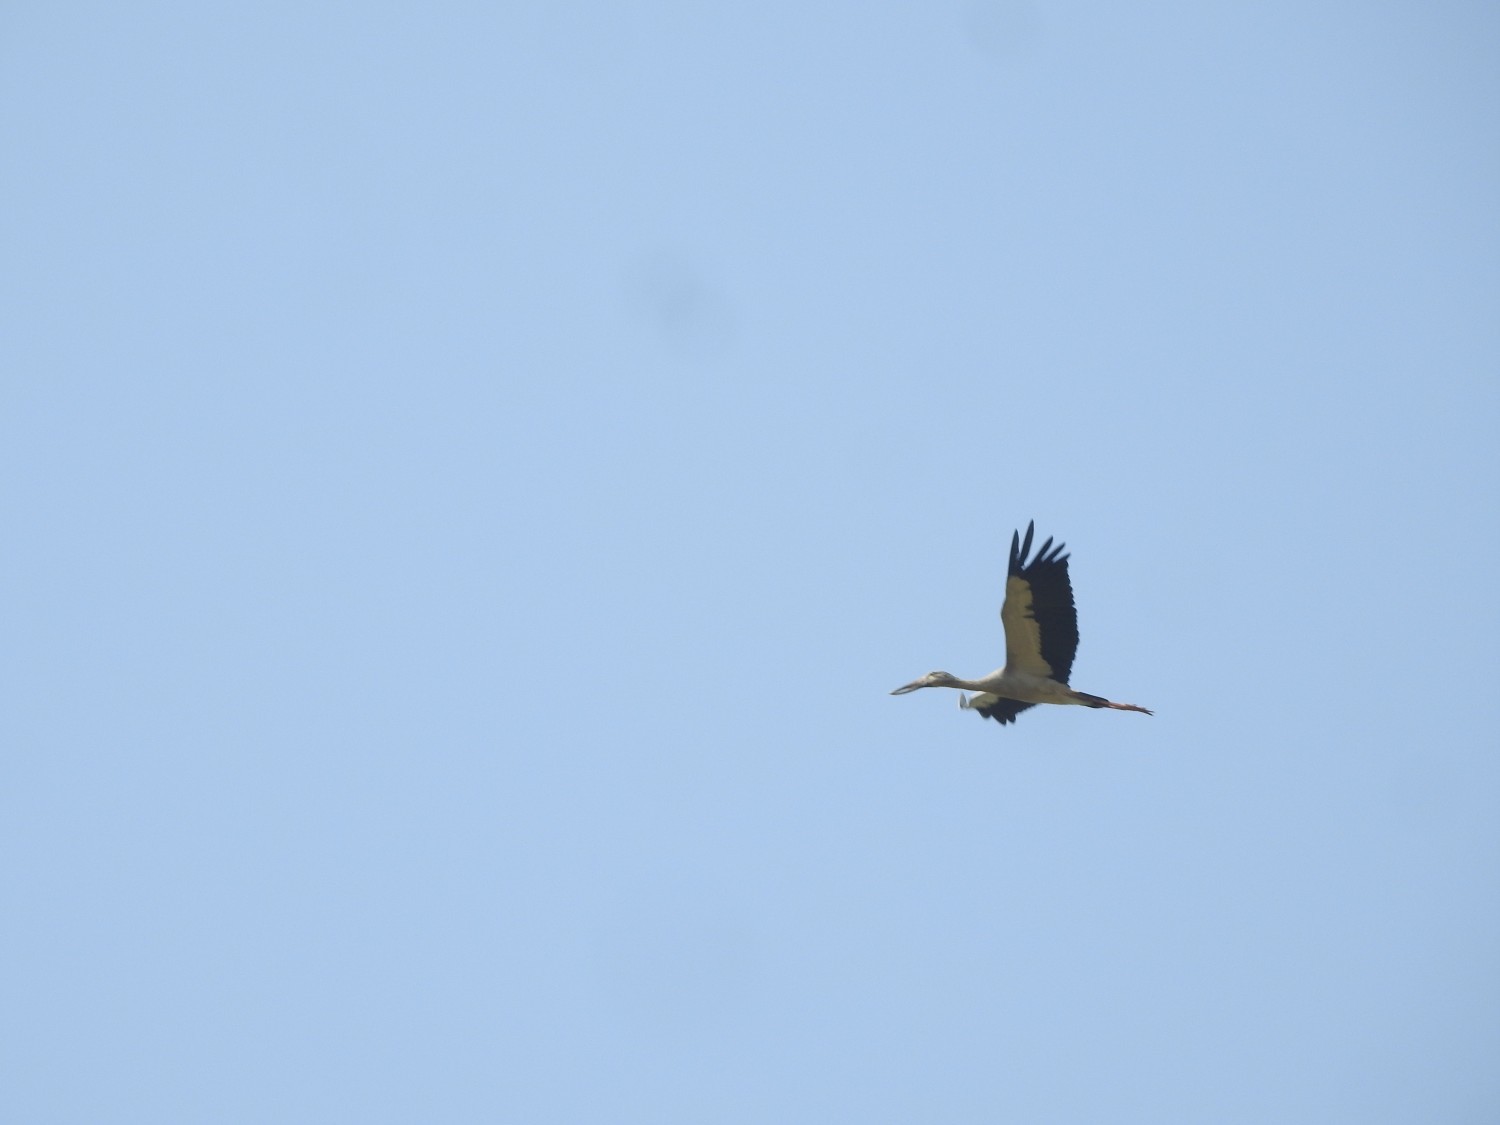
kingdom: Animalia
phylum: Chordata
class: Aves
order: Ciconiiformes
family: Ciconiidae
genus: Anastomus
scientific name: Anastomus oscitans
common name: Asian openbill
